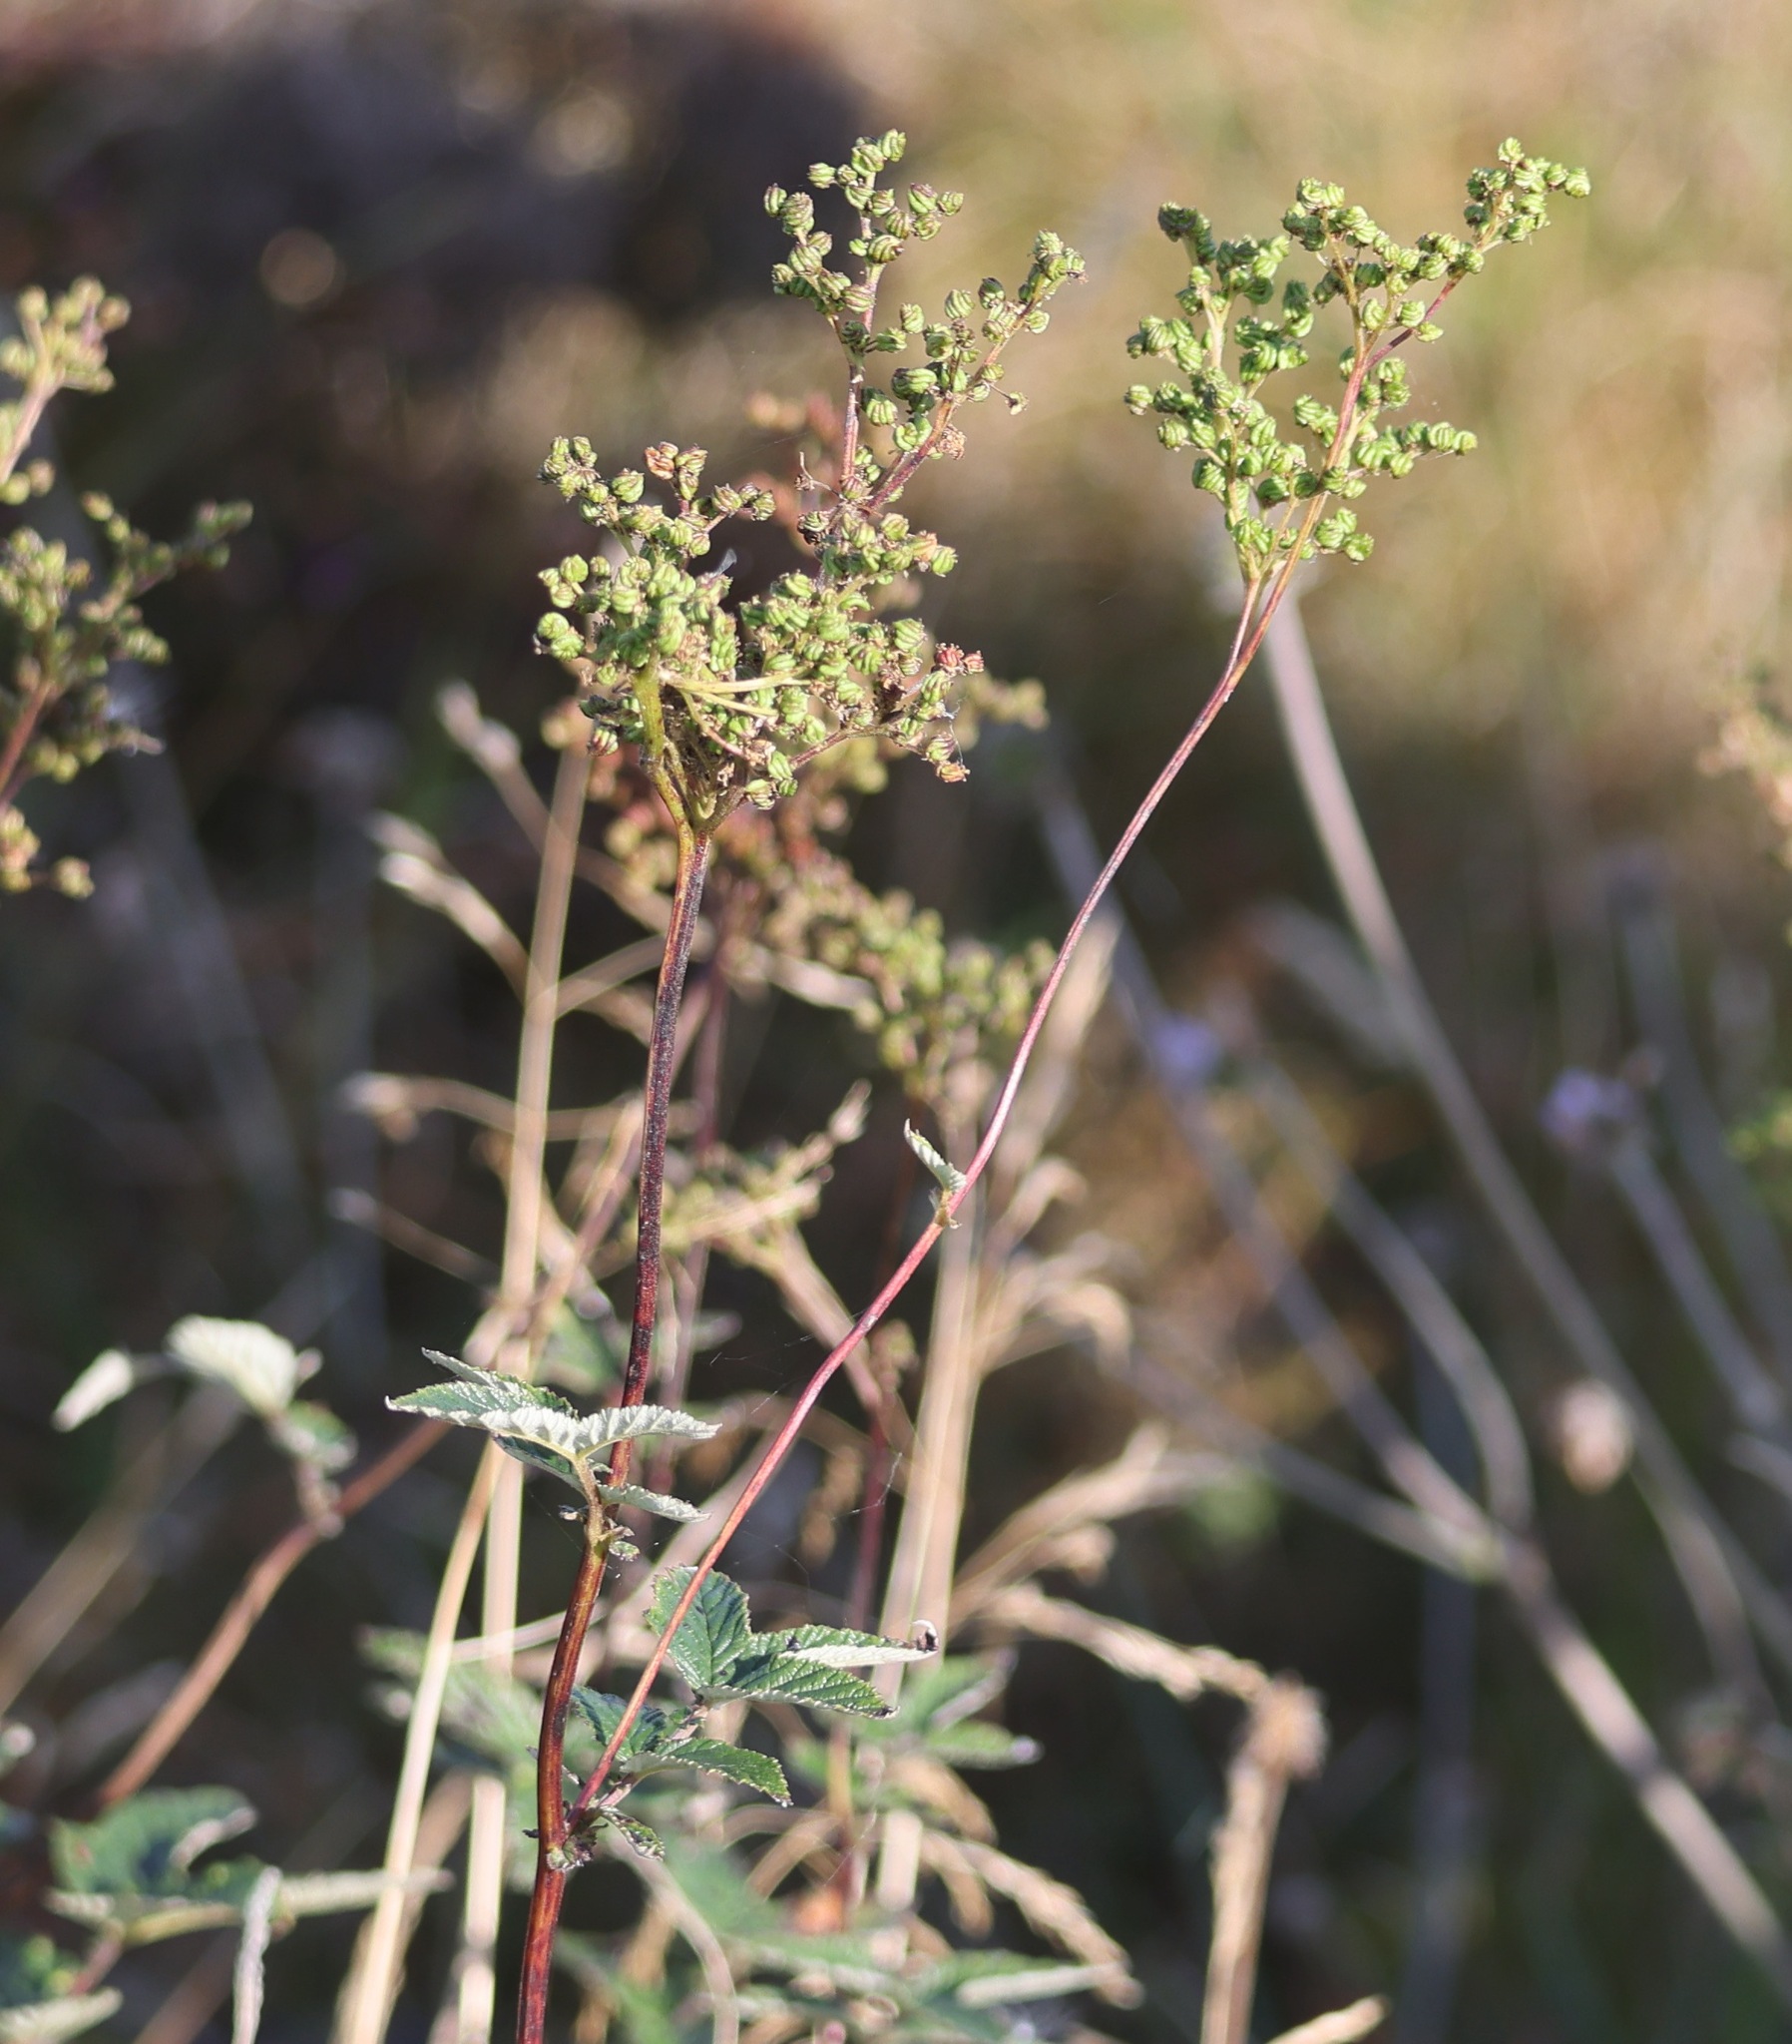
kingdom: Plantae
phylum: Tracheophyta
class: Magnoliopsida
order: Rosales
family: Rosaceae
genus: Filipendula
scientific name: Filipendula ulmaria
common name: Meadowsweet
